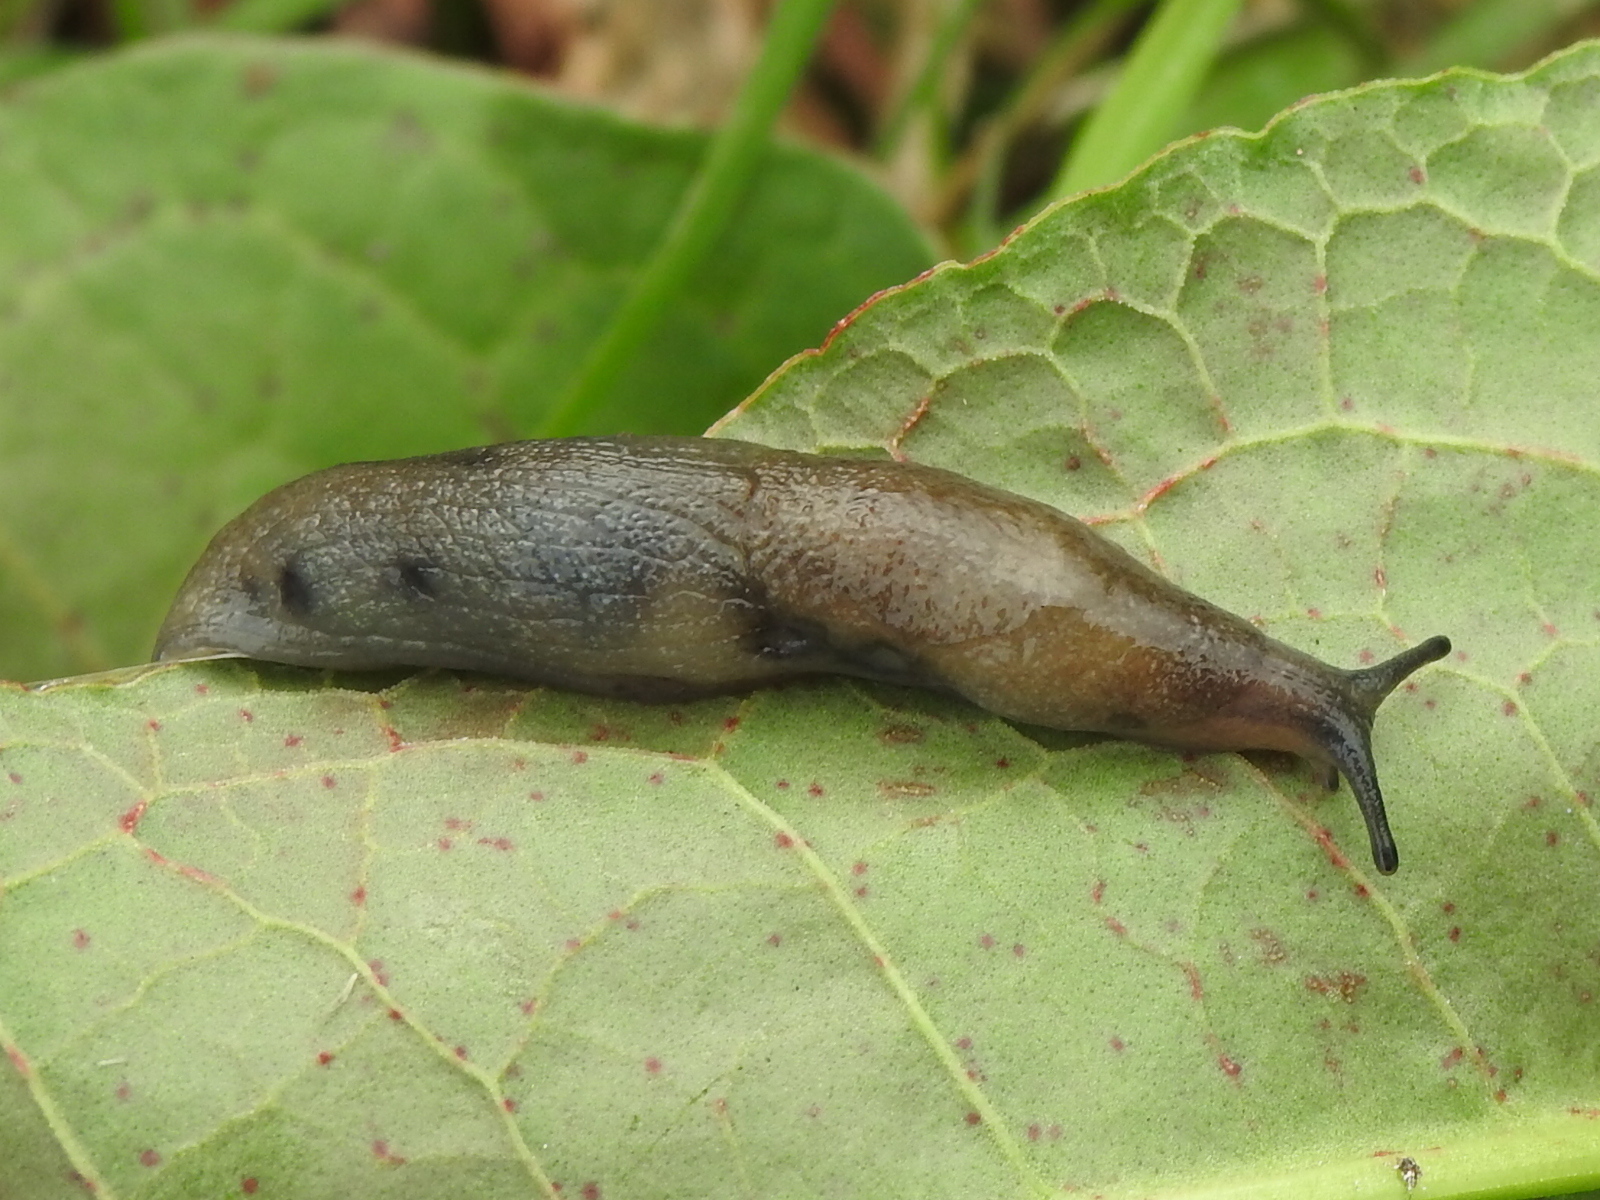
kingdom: Animalia
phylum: Mollusca
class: Gastropoda
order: Stylommatophora
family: Milacidae
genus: Milax
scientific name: Milax gagates
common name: Greenhouse slug
